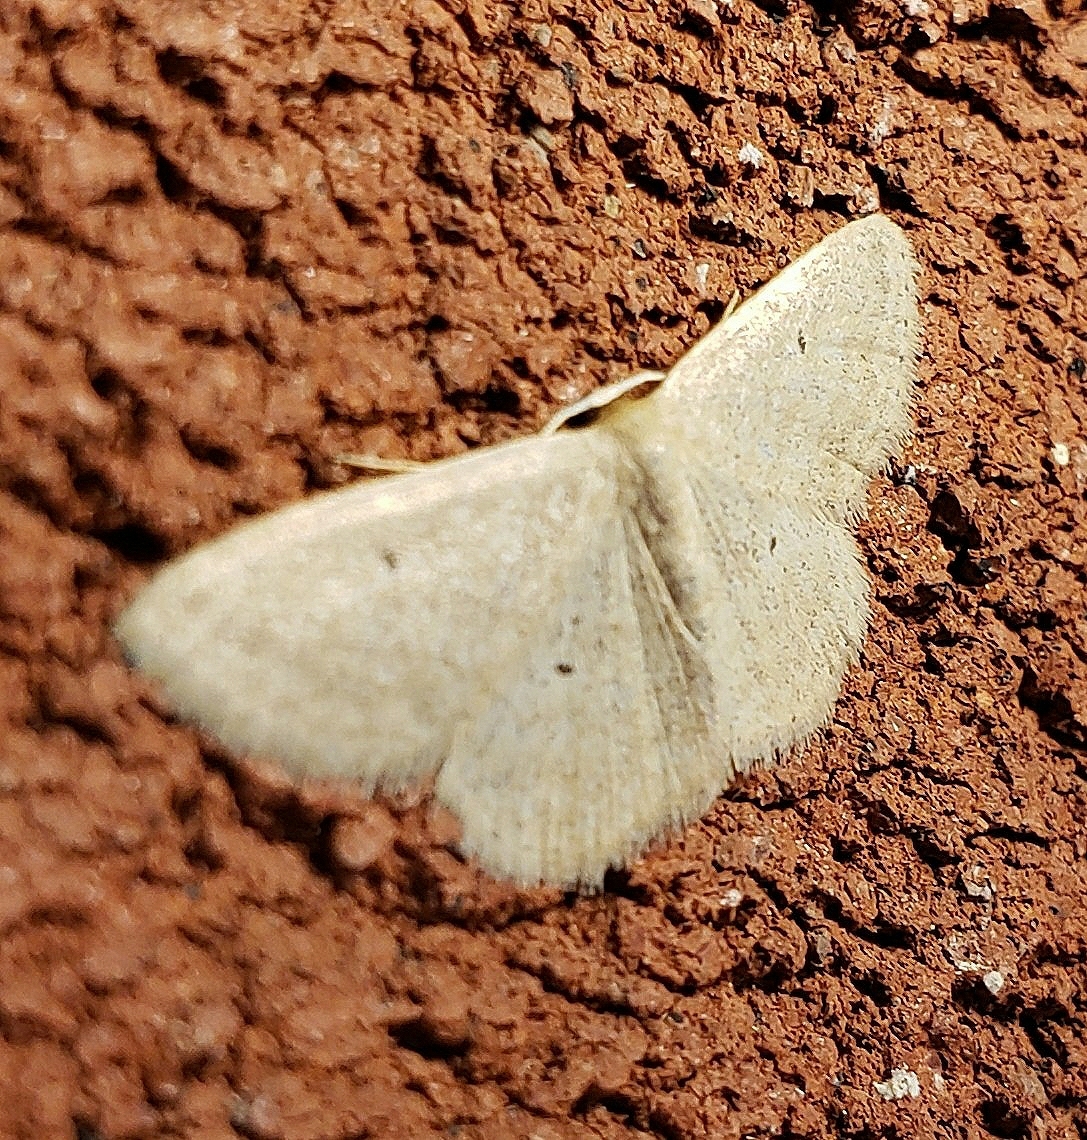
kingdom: Animalia
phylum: Arthropoda
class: Insecta
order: Lepidoptera
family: Geometridae
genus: Scopula
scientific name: Scopula inductata
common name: Soft-lined wave
